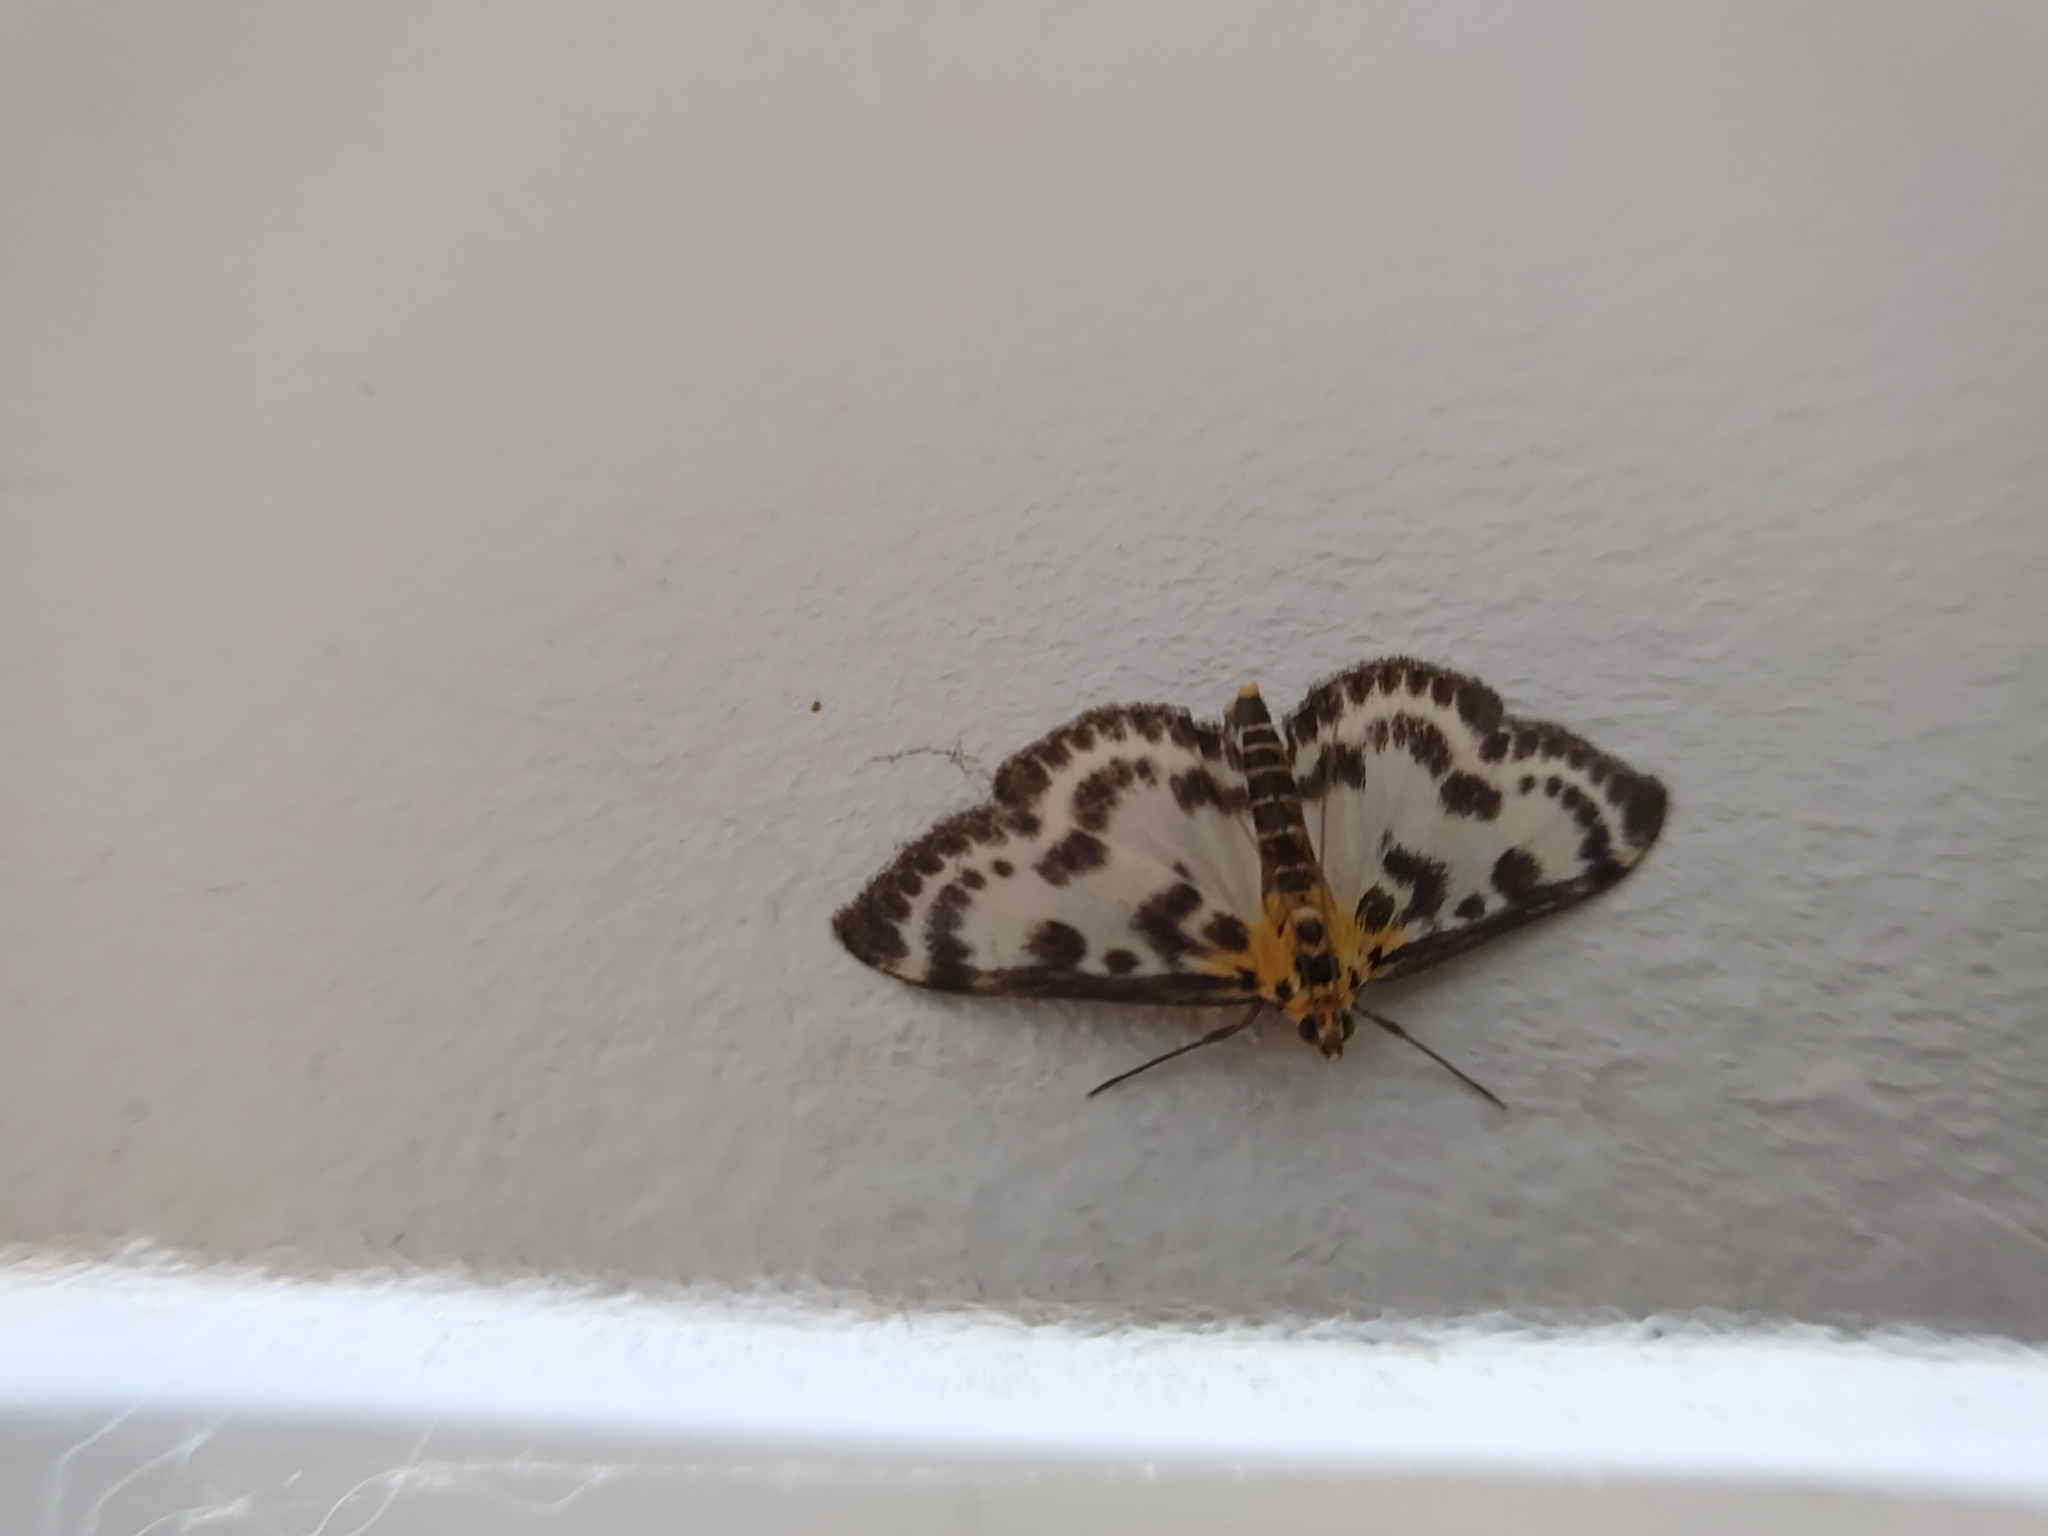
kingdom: Animalia
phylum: Arthropoda
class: Insecta
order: Lepidoptera
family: Crambidae
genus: Anania
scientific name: Anania hortulata
